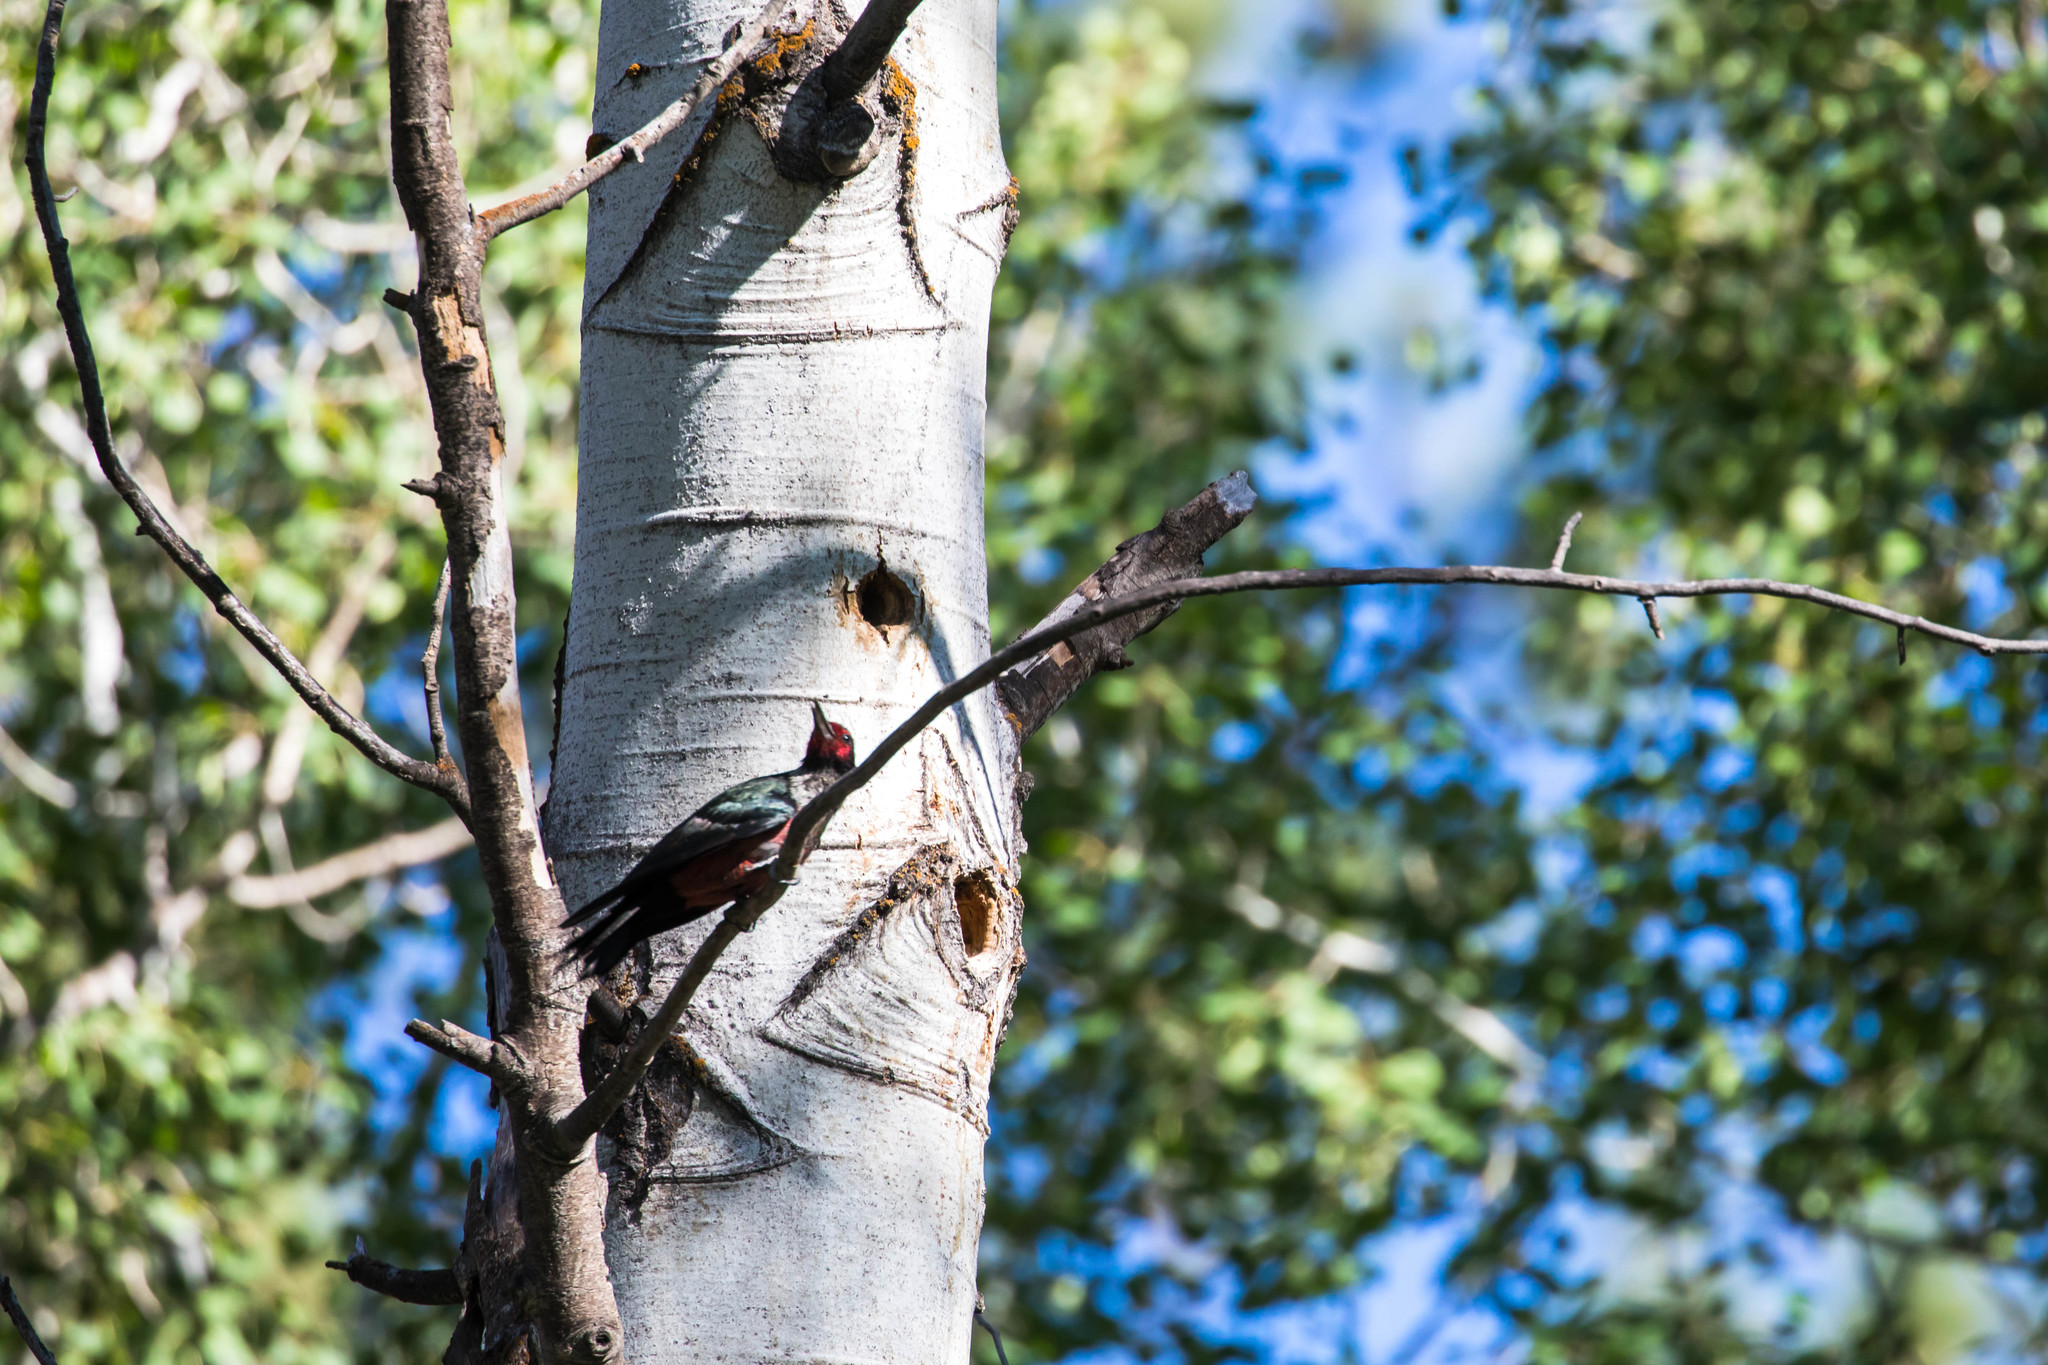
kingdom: Animalia
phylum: Chordata
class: Aves
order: Piciformes
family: Picidae
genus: Melanerpes
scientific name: Melanerpes lewis
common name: Lewis's woodpecker
